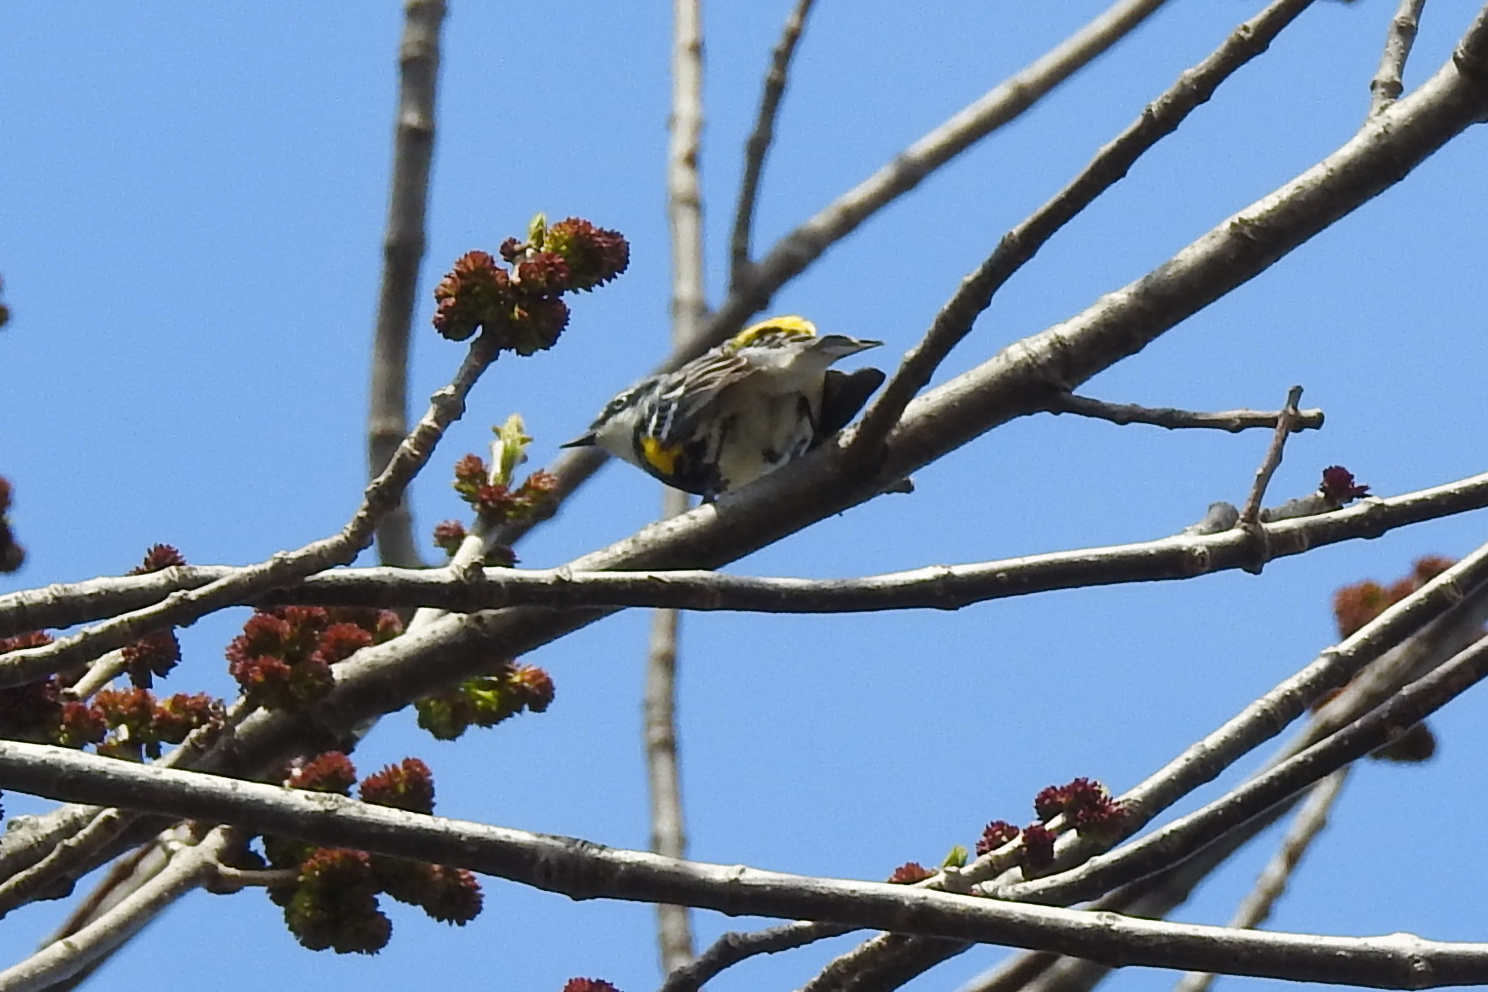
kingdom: Animalia
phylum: Chordata
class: Aves
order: Passeriformes
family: Parulidae
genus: Setophaga
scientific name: Setophaga coronata
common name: Myrtle warbler
